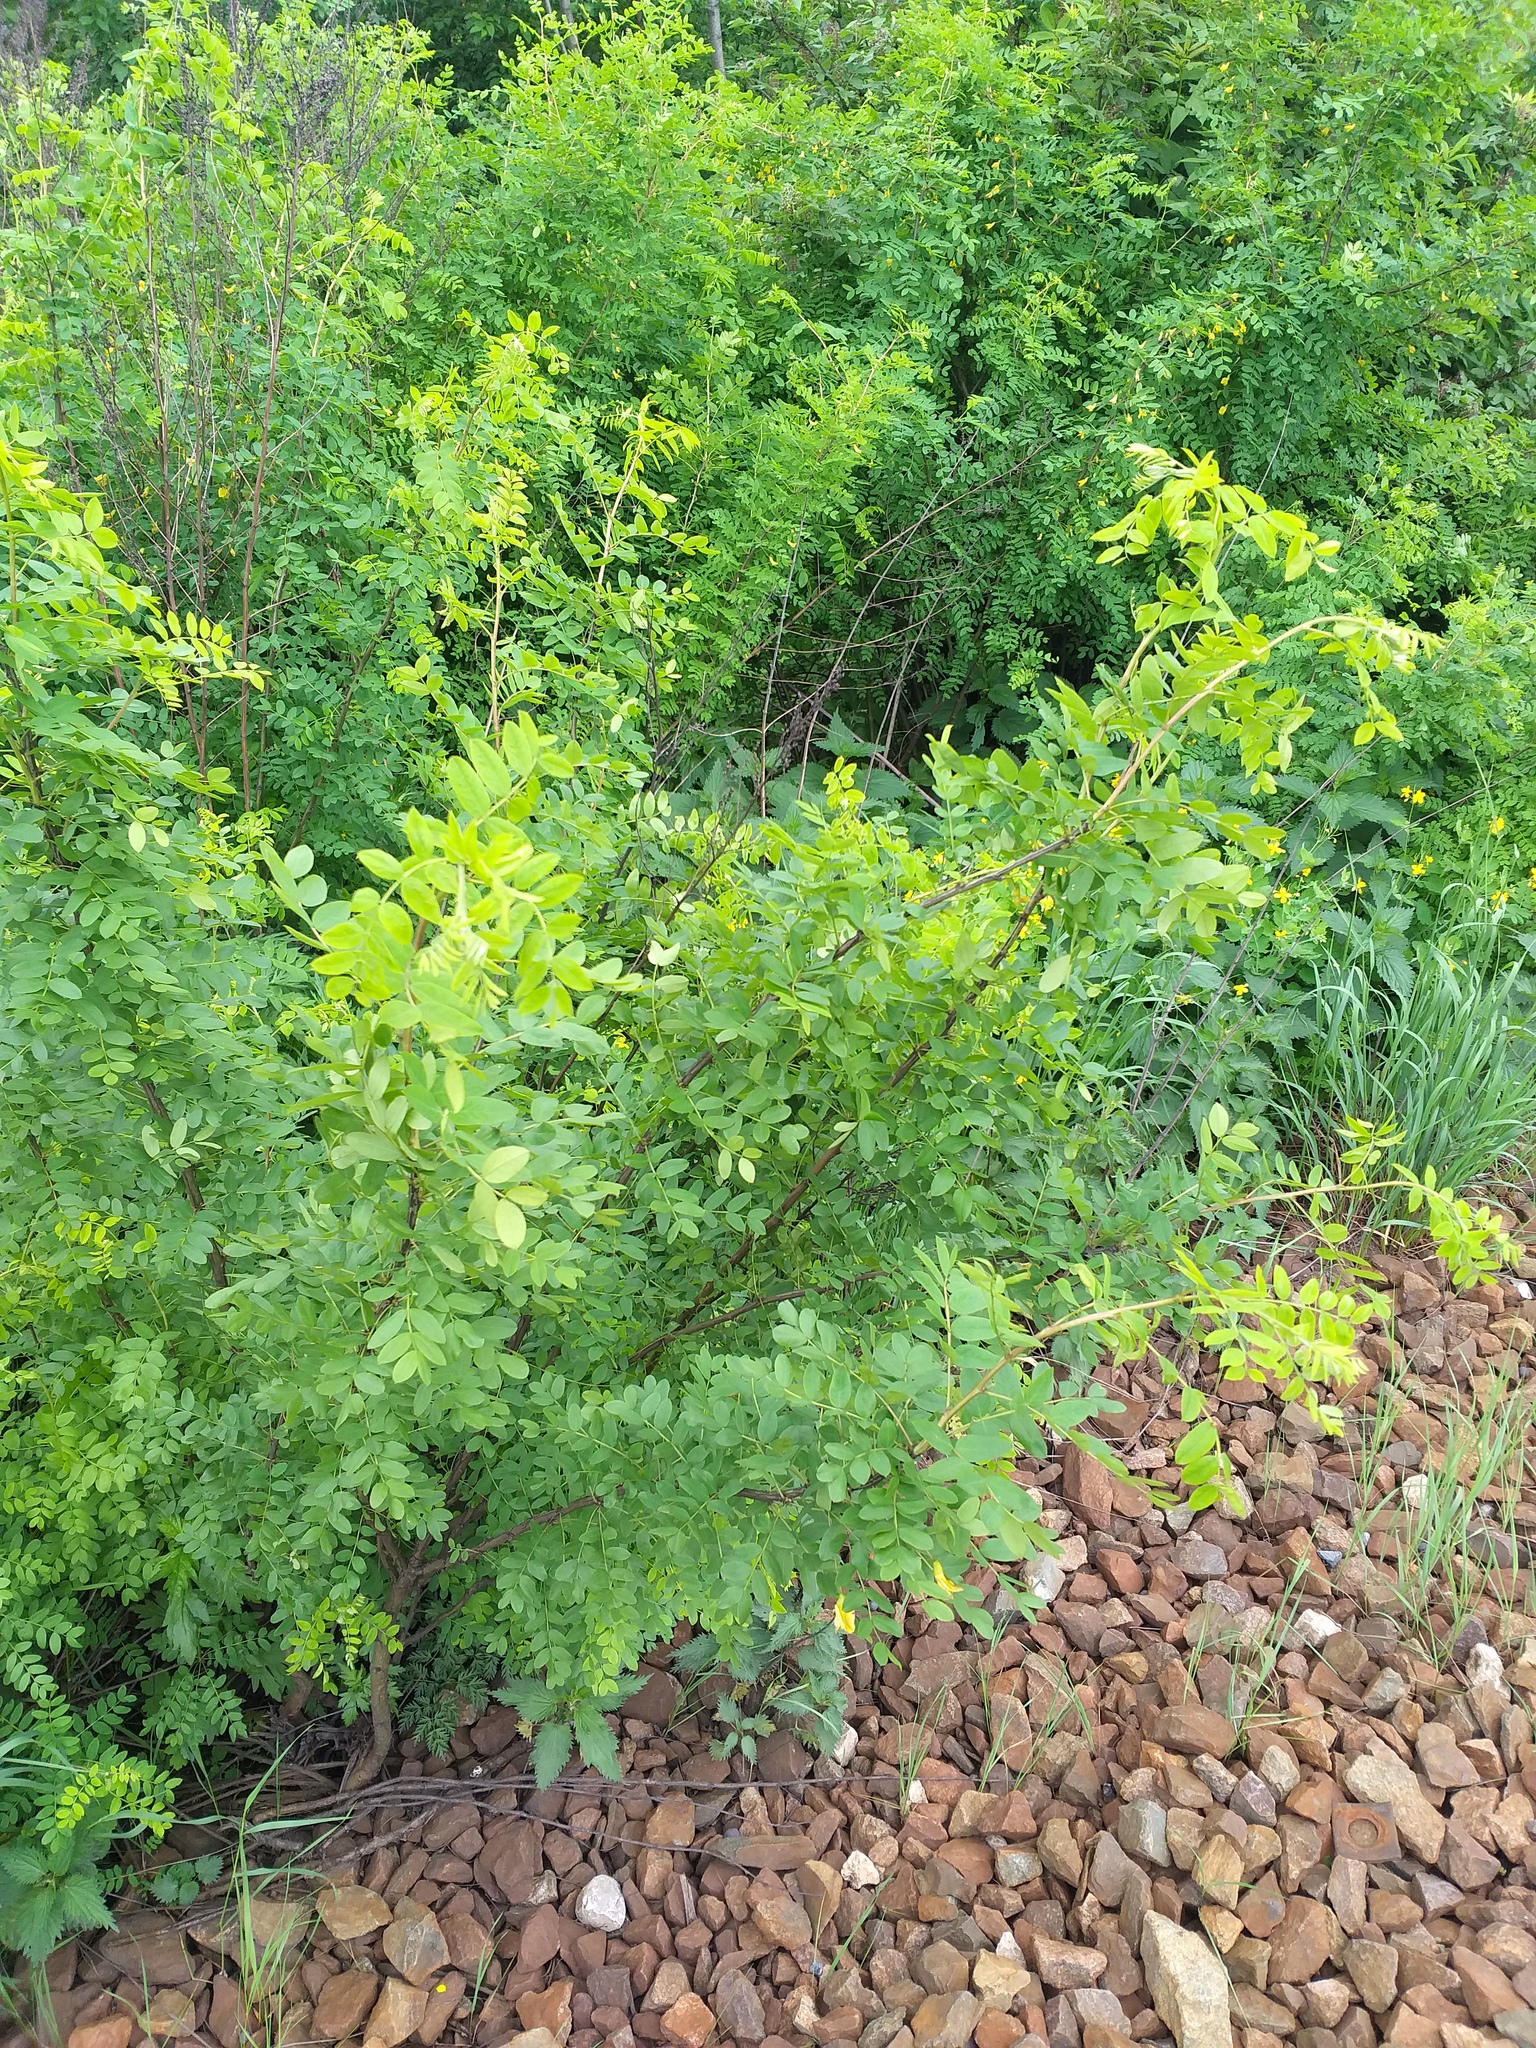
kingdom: Plantae
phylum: Tracheophyta
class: Magnoliopsida
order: Fabales
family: Fabaceae
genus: Caragana
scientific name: Caragana arborescens
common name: Siberian peashrub
